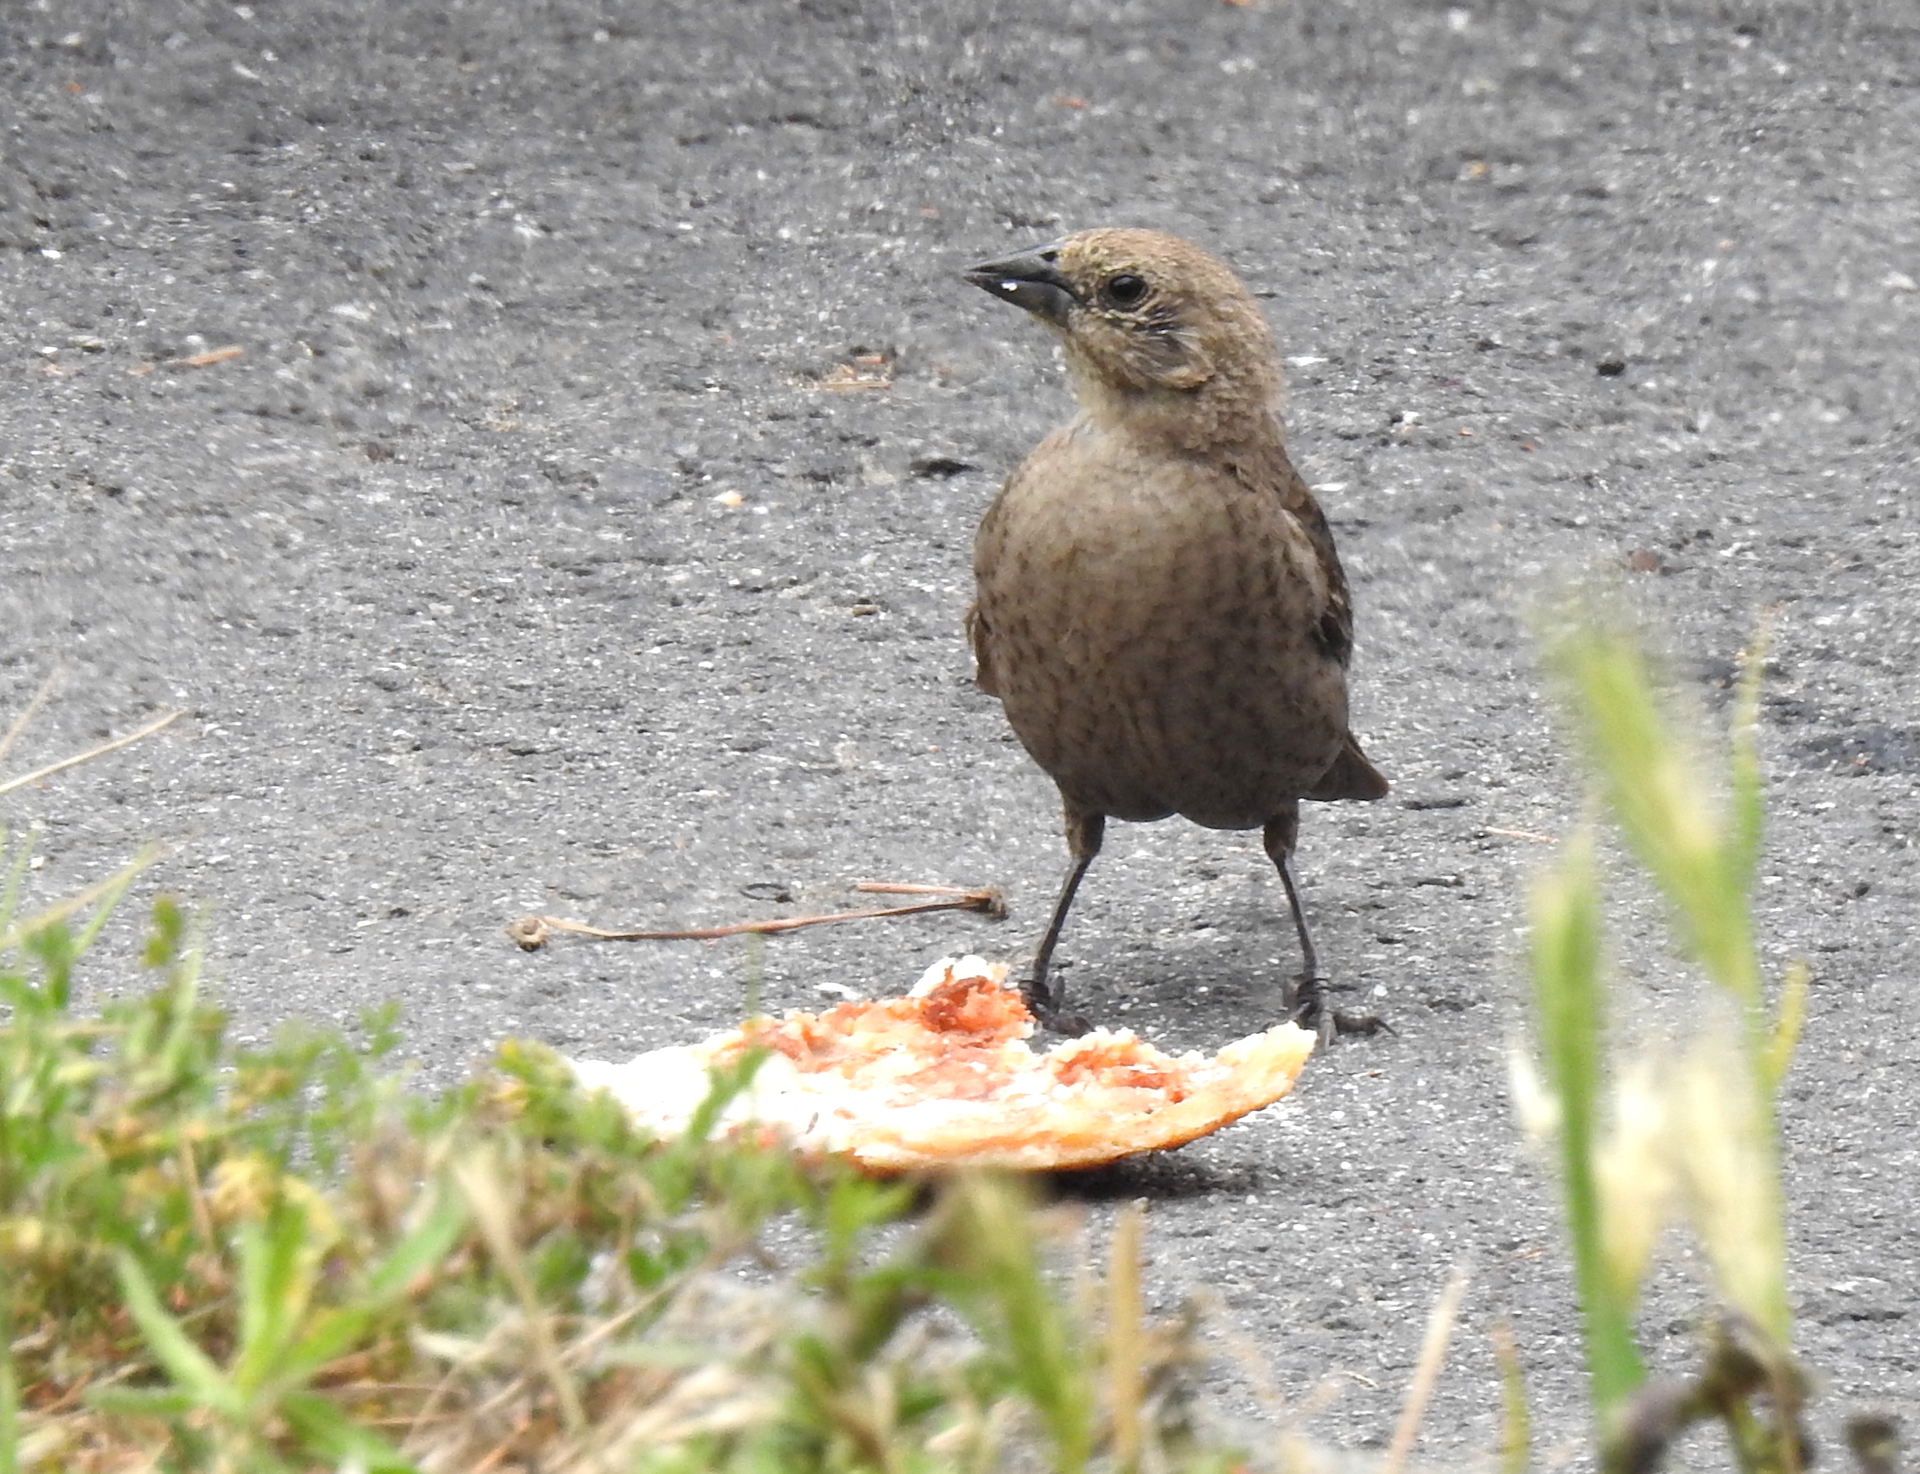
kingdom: Animalia
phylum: Chordata
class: Aves
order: Passeriformes
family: Icteridae
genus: Molothrus
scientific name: Molothrus ater
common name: Brown-headed cowbird
